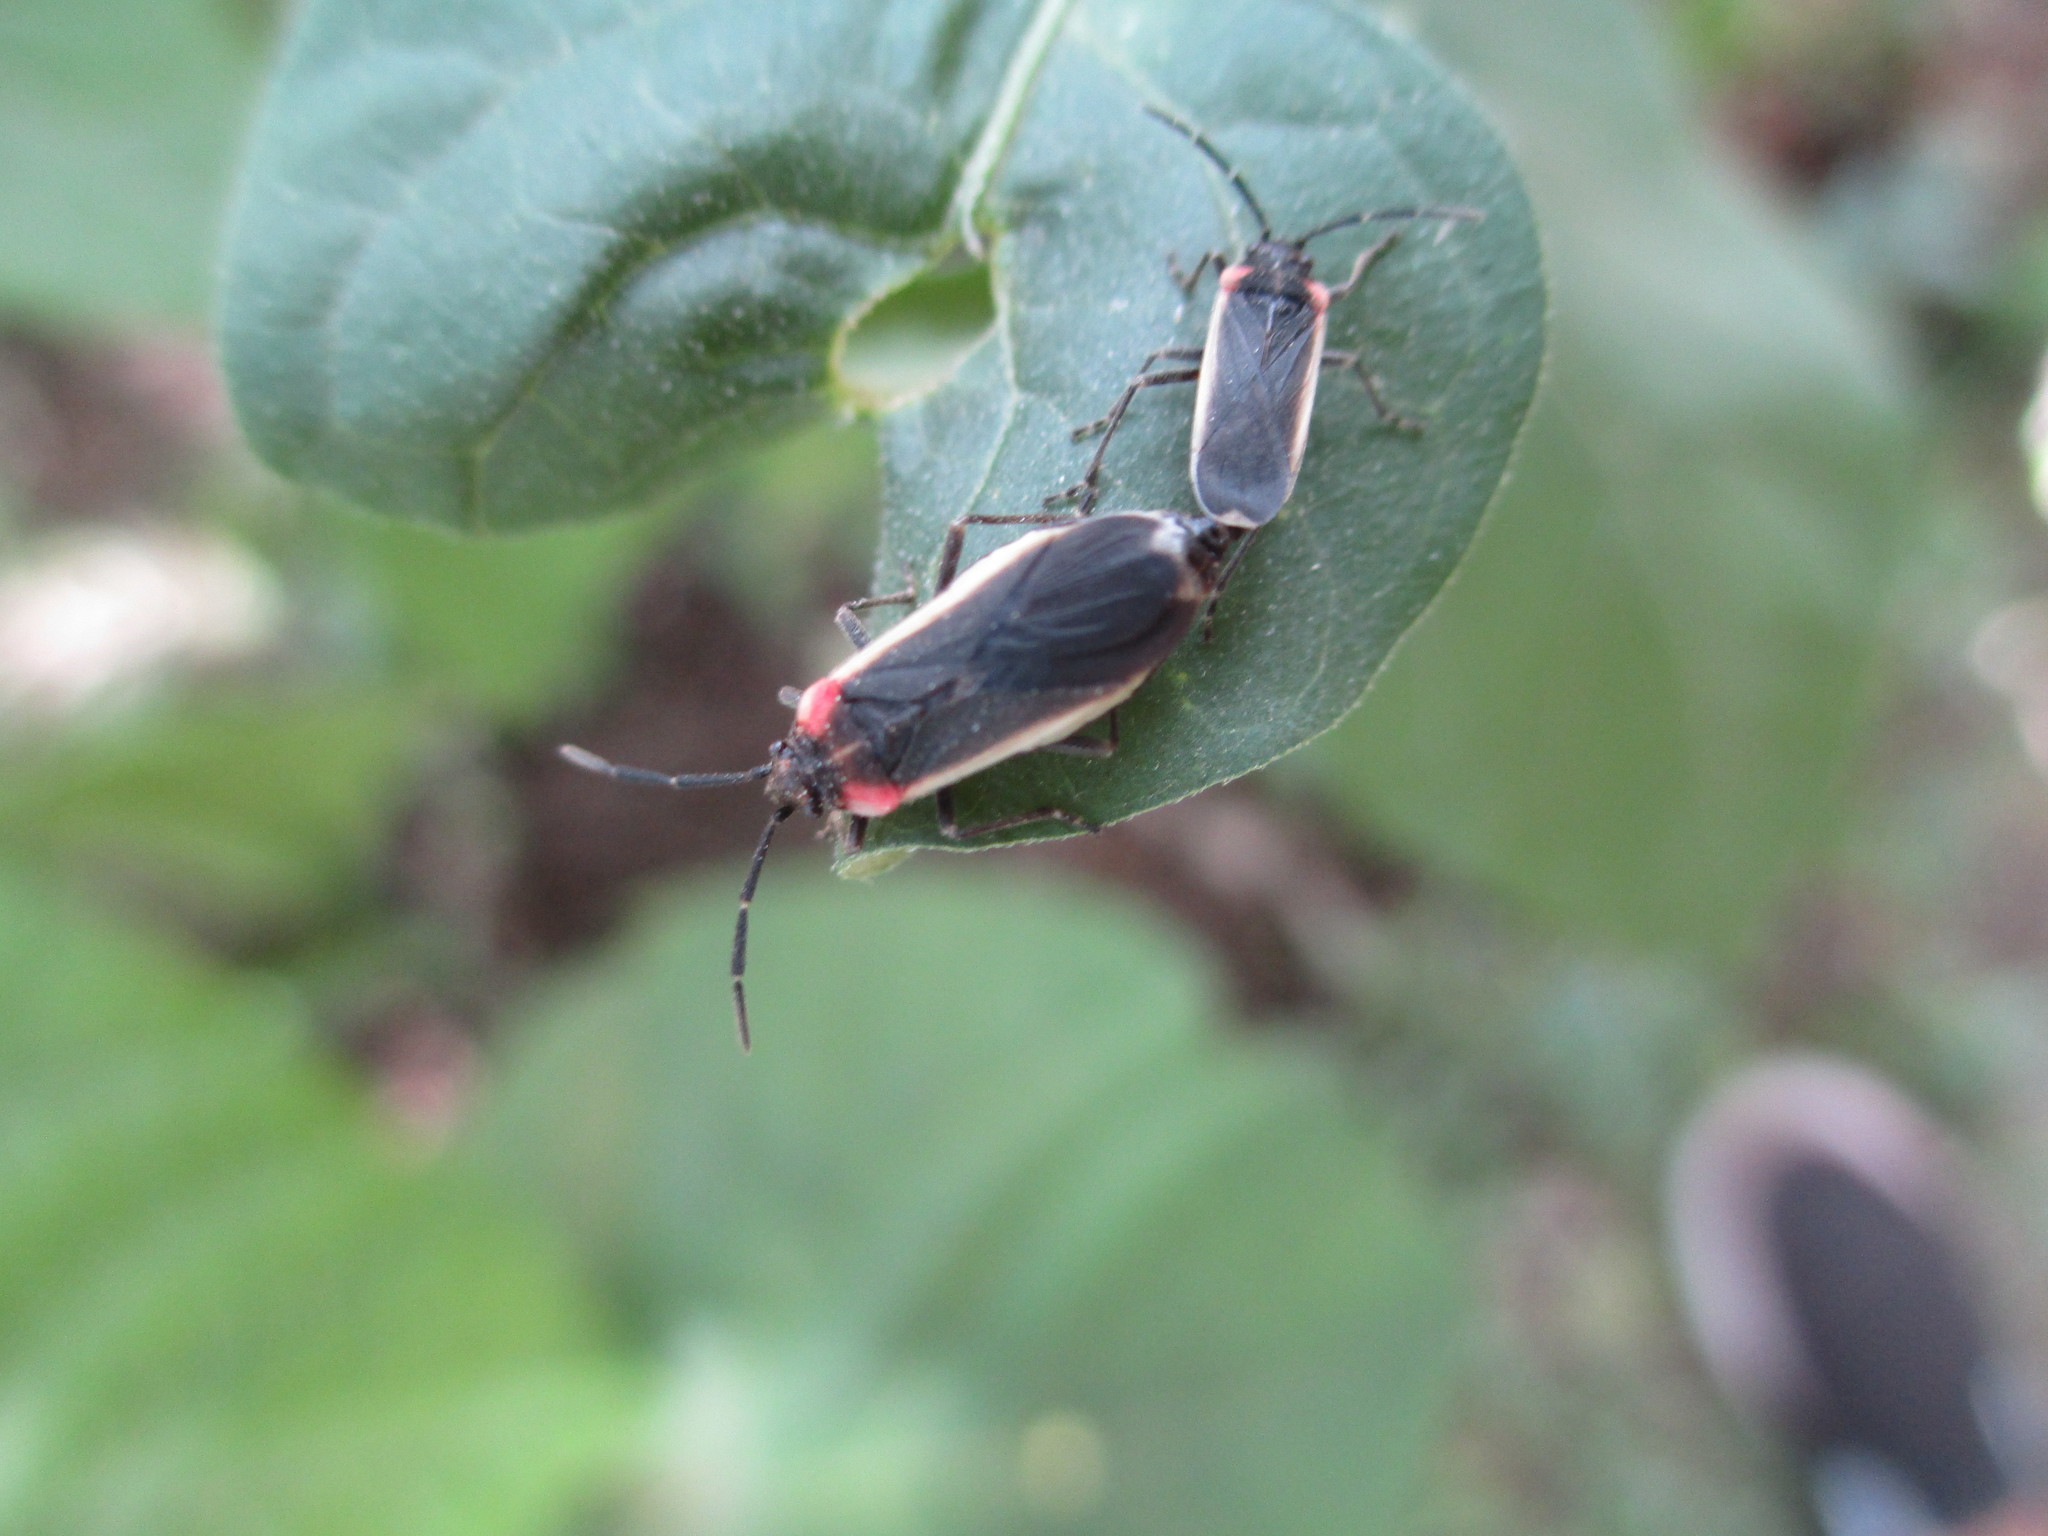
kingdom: Animalia
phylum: Arthropoda
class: Insecta
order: Hemiptera
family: Lygaeidae
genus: Acroleucus
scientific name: Acroleucus coxalis
